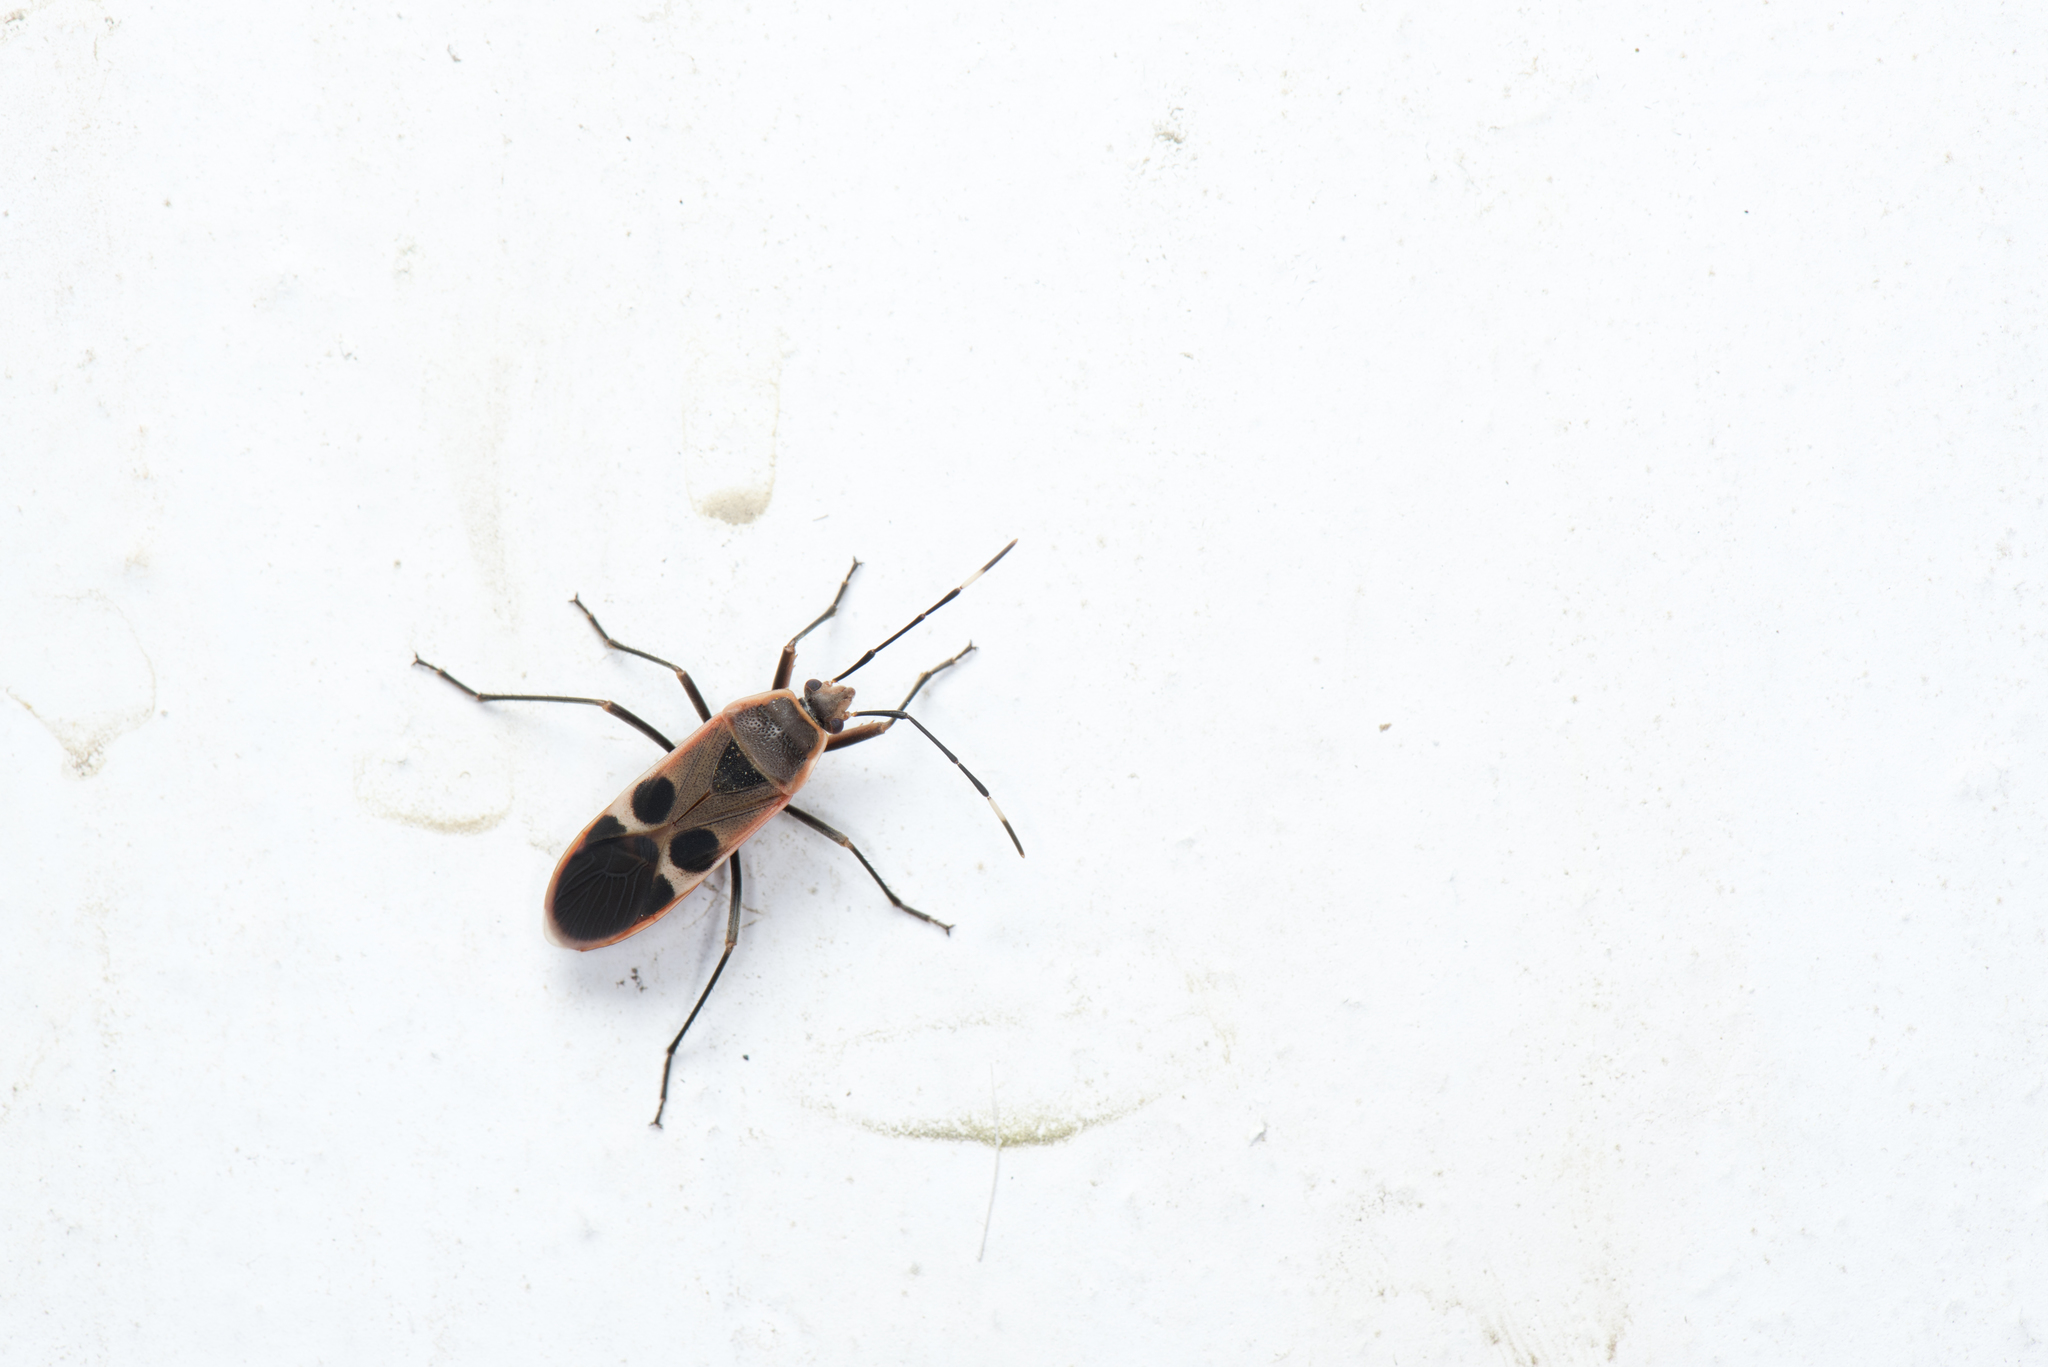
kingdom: Animalia
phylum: Arthropoda
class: Insecta
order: Hemiptera
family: Largidae
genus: Physopelta
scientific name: Physopelta gutta
